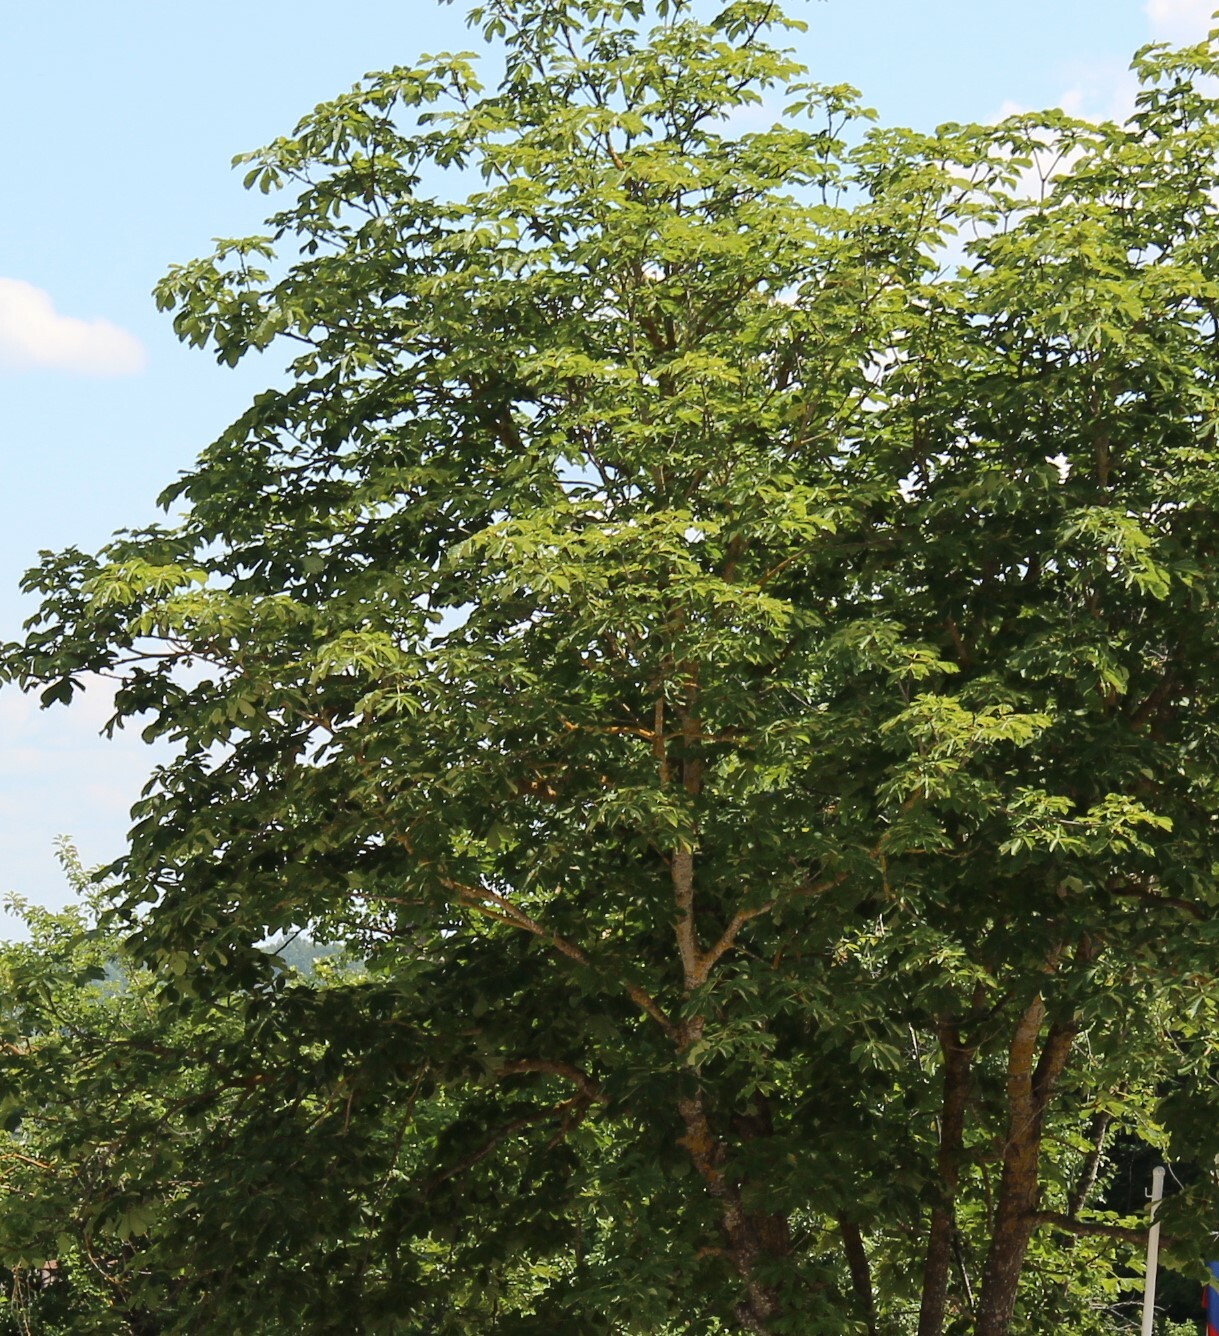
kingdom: Plantae
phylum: Tracheophyta
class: Magnoliopsida
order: Sapindales
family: Sapindaceae
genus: Aesculus
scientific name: Aesculus hippocastanum
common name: Horse-chestnut
